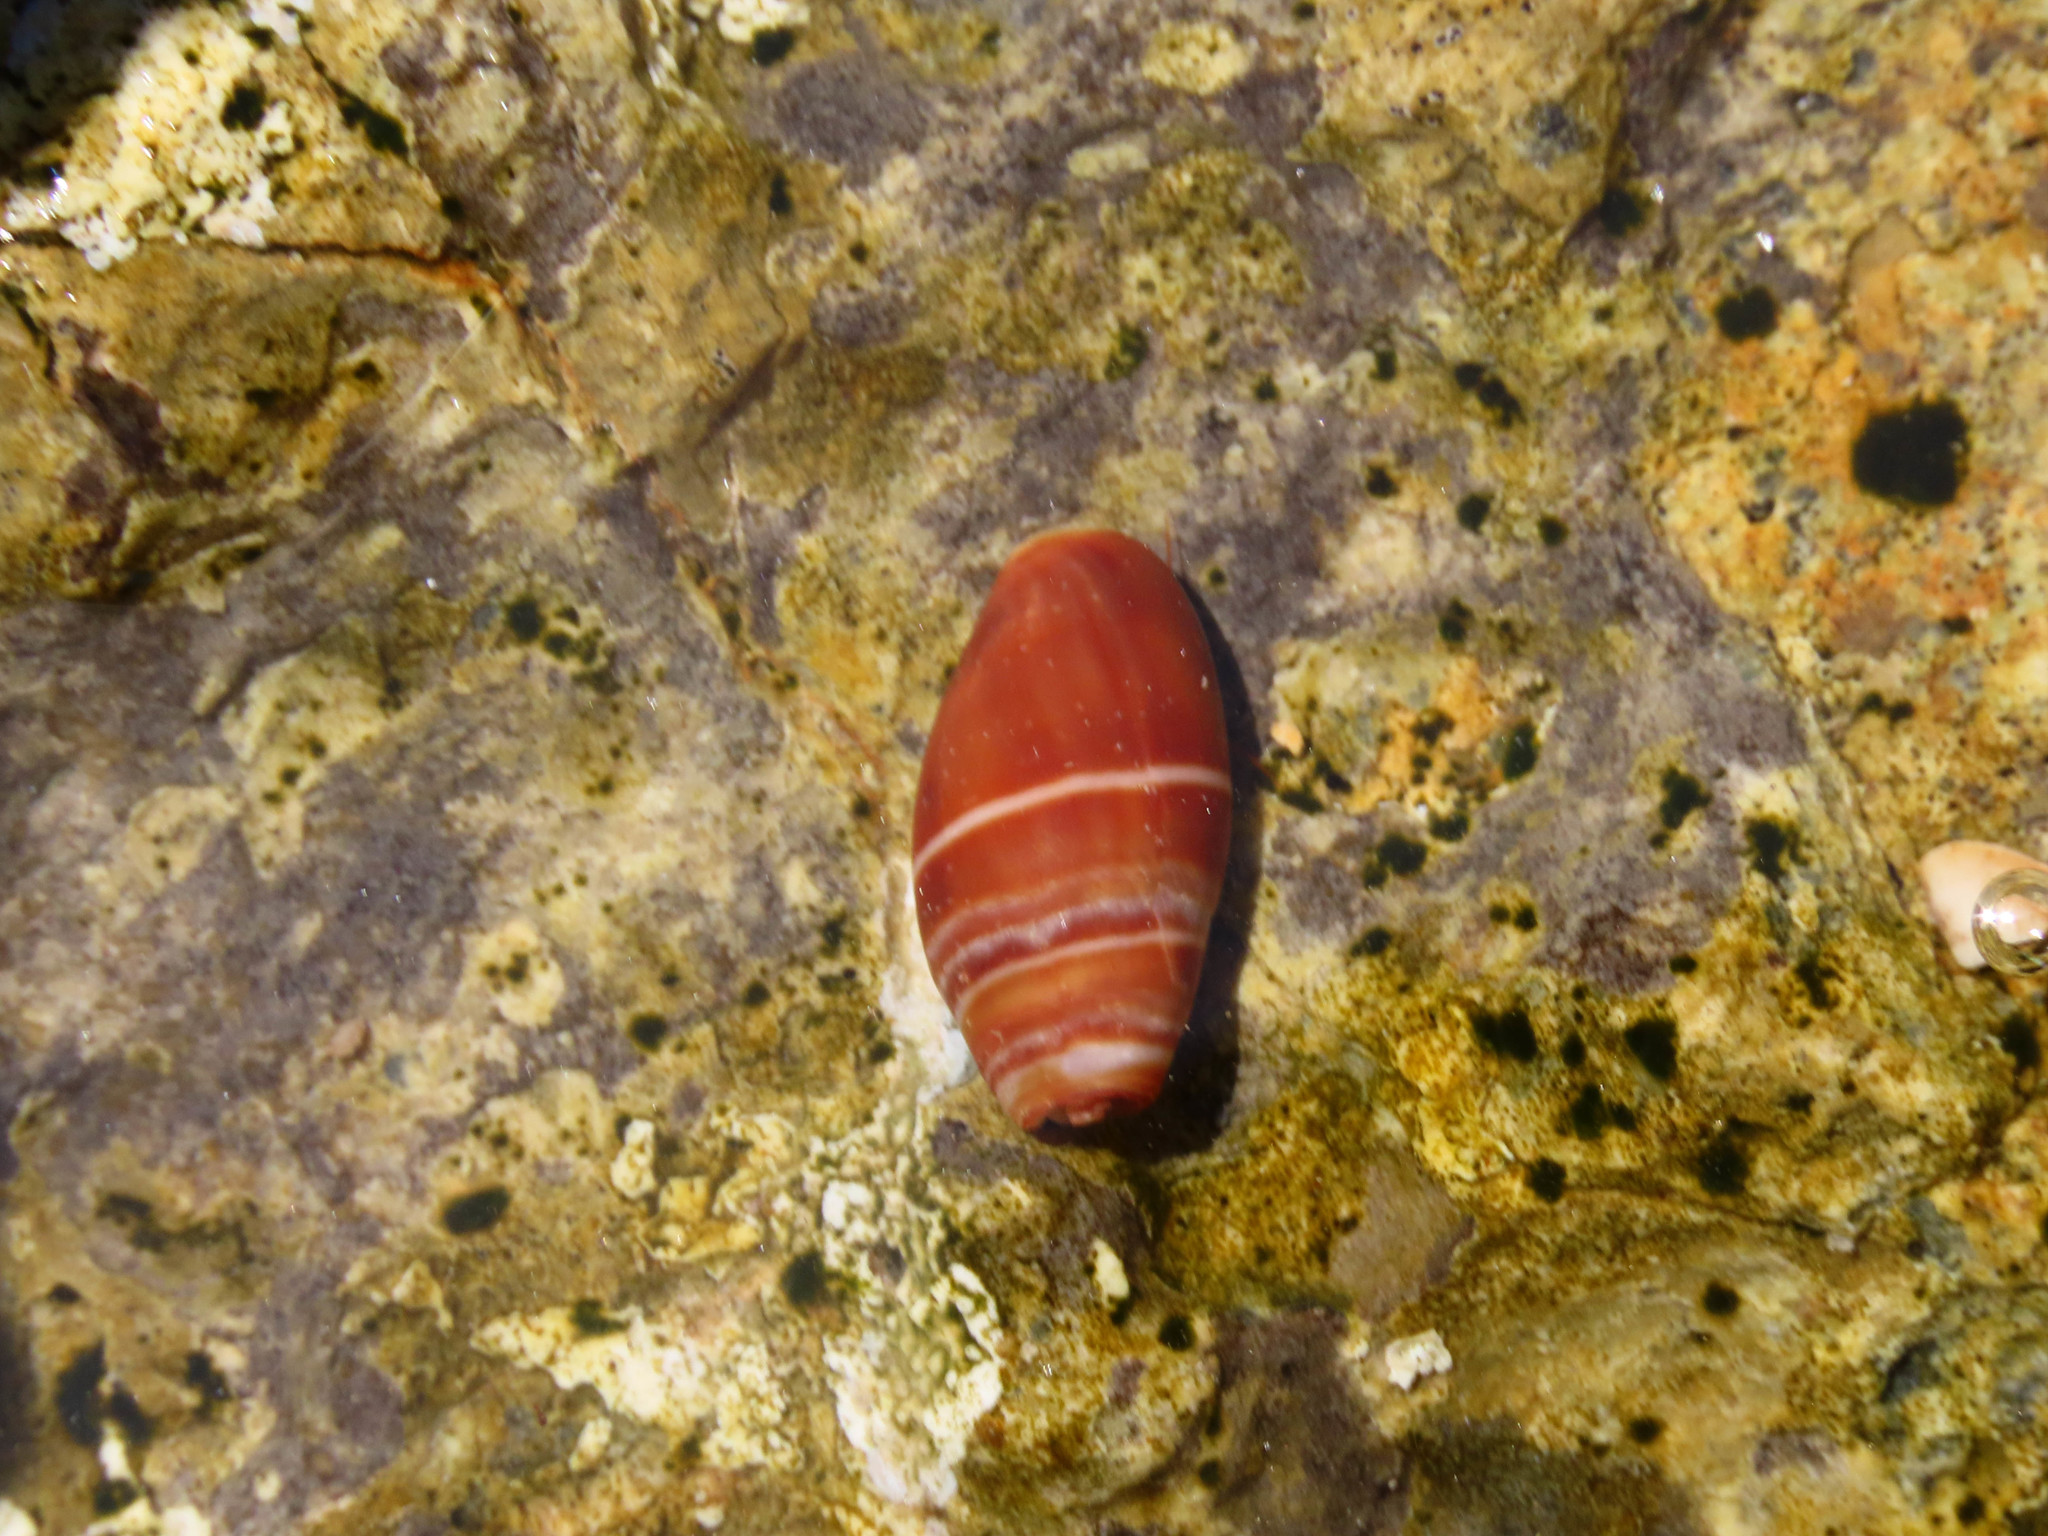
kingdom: Animalia
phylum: Mollusca
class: Gastropoda
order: Neogastropoda
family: Costellariidae
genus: Pusia
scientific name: Pusia ebenus
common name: Brown mitre
